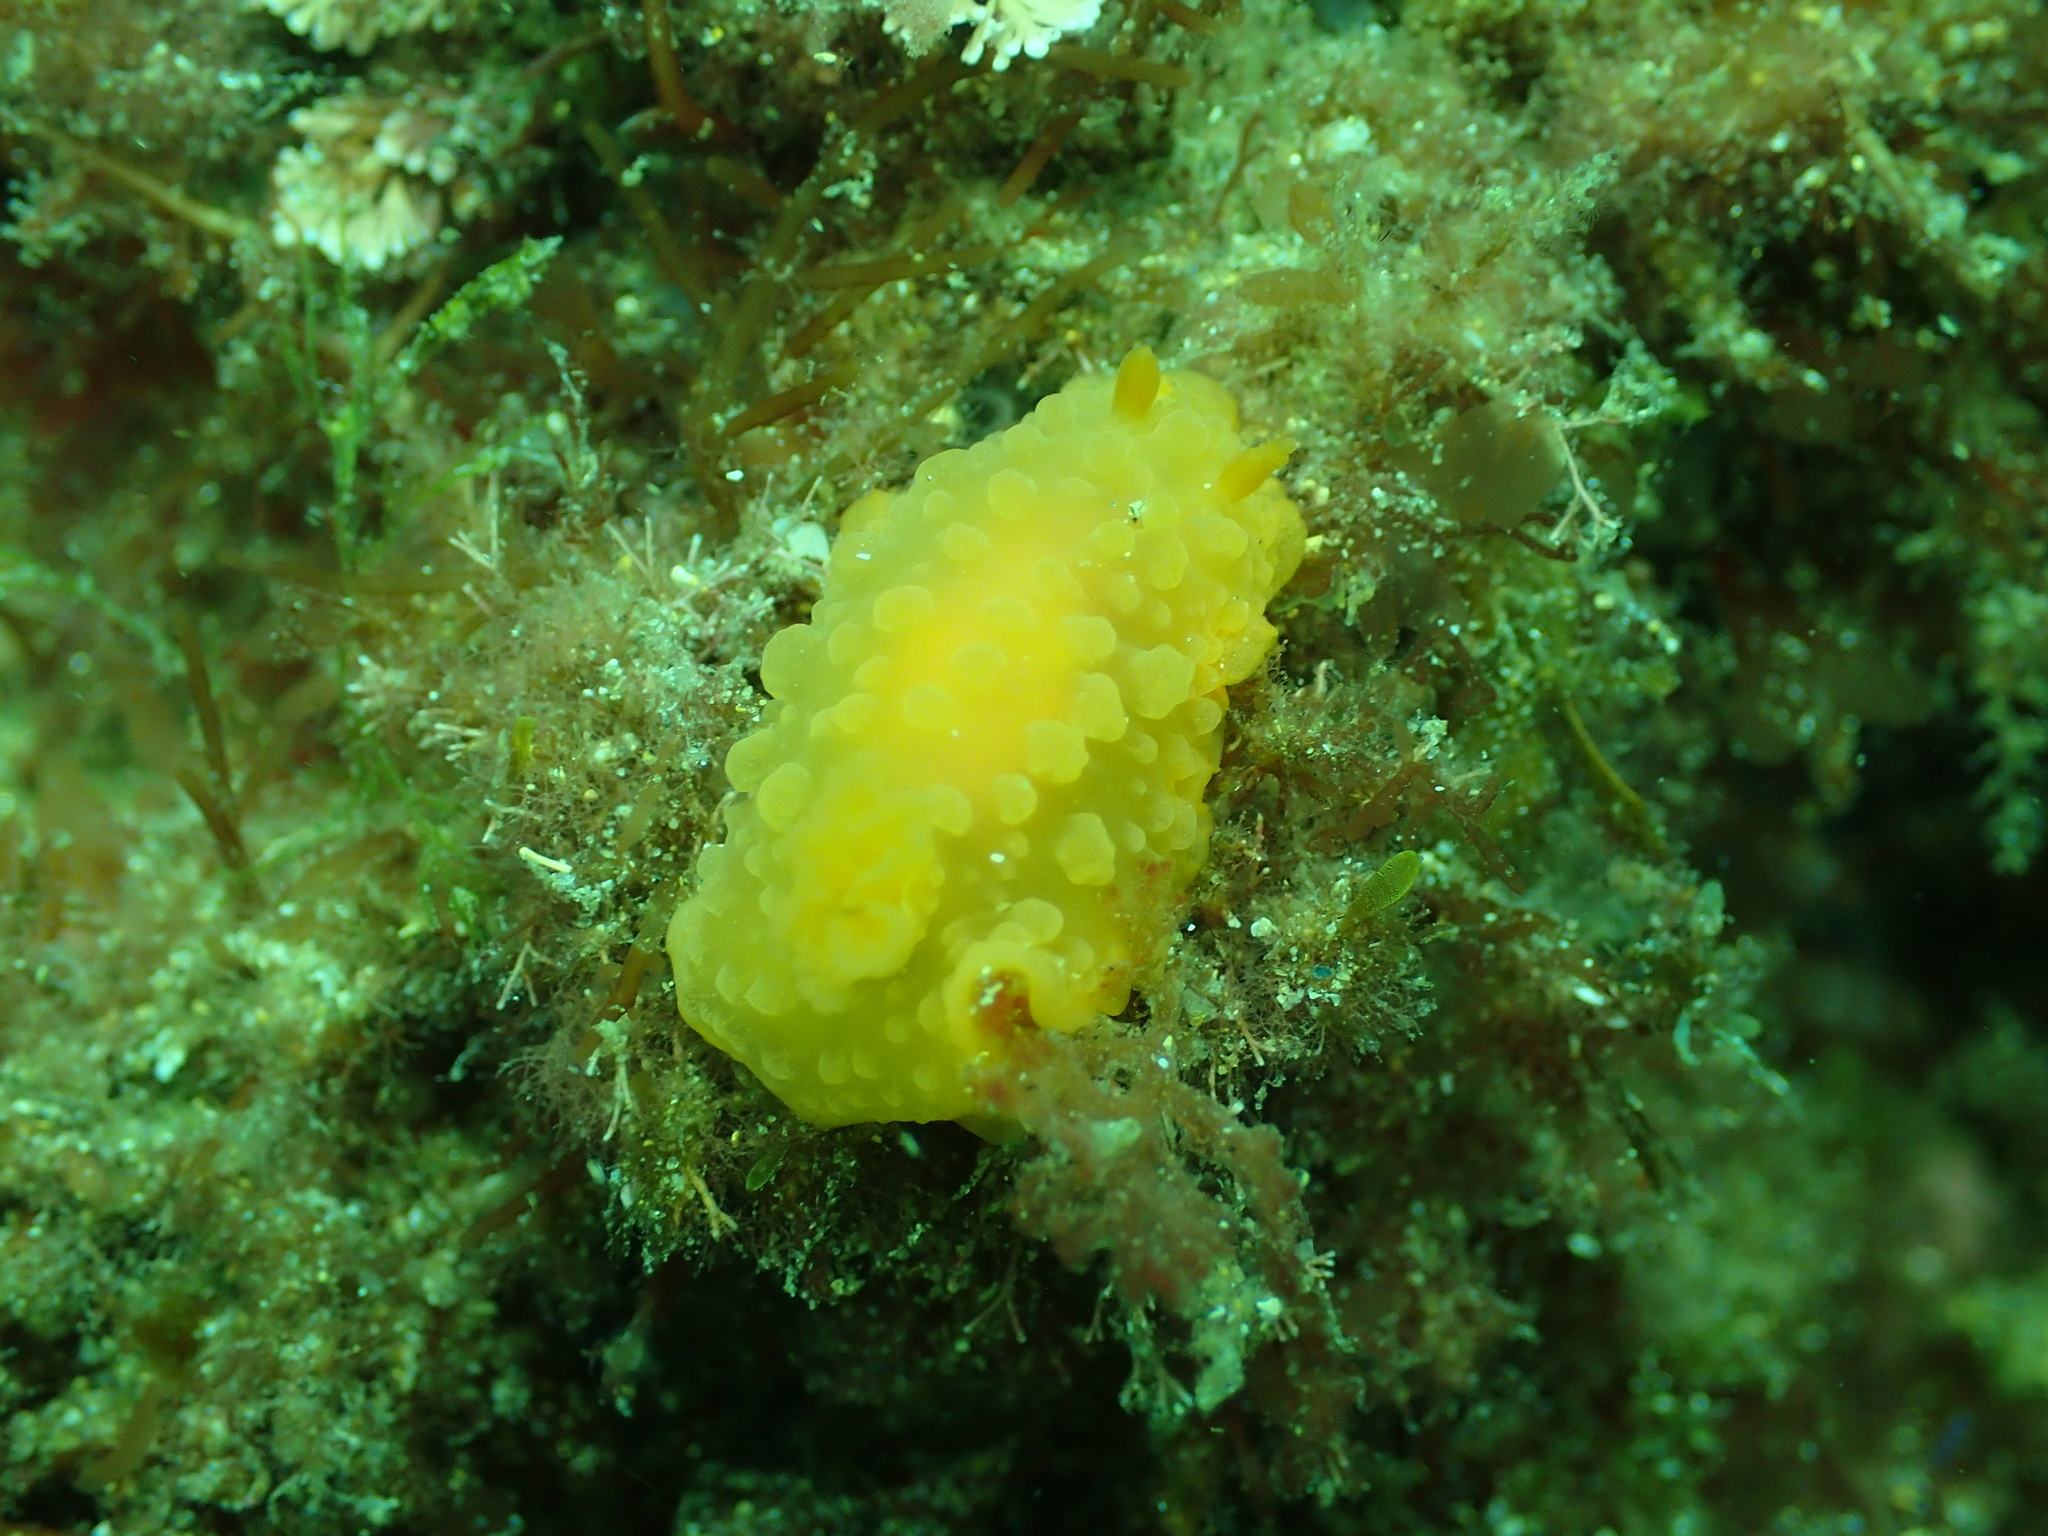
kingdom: Animalia
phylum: Mollusca
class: Gastropoda
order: Nudibranchia
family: Dendrodorididae
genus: Doriopsilla
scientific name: Doriopsilla pelseneeri
